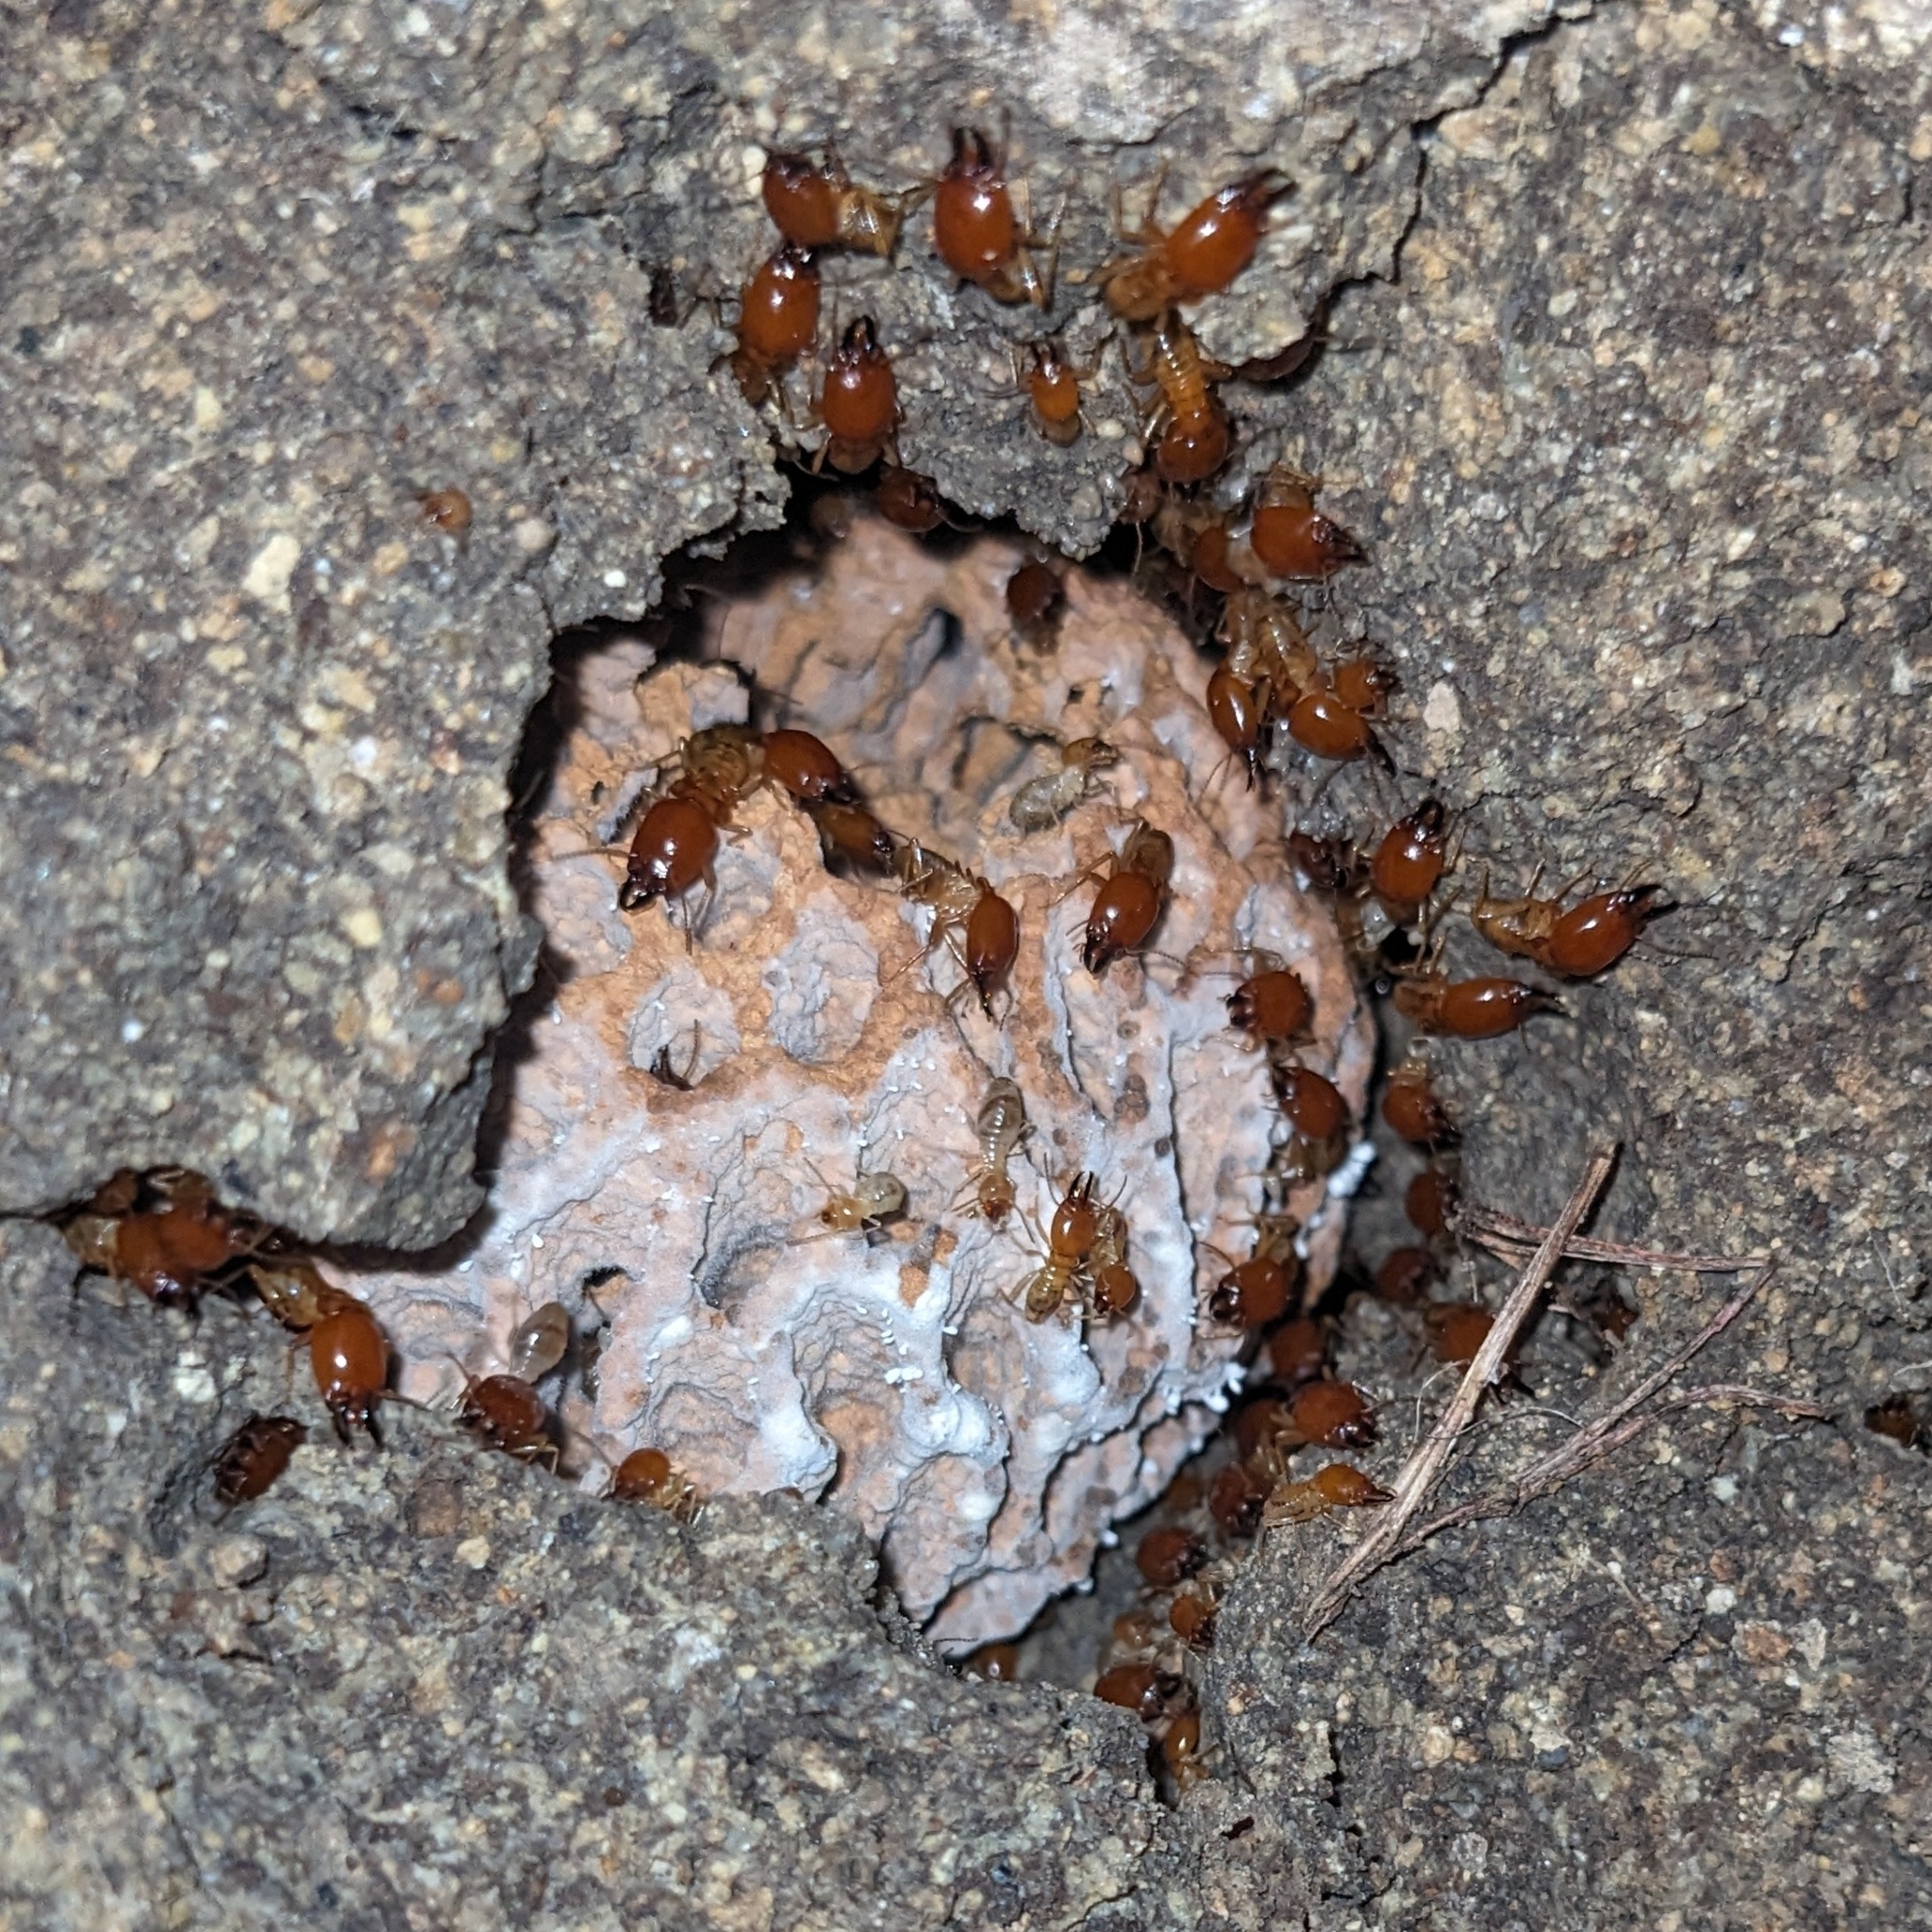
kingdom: Animalia
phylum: Arthropoda
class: Insecta
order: Blattodea
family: Termitidae
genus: Macrotermes
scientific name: Macrotermes gilvus
